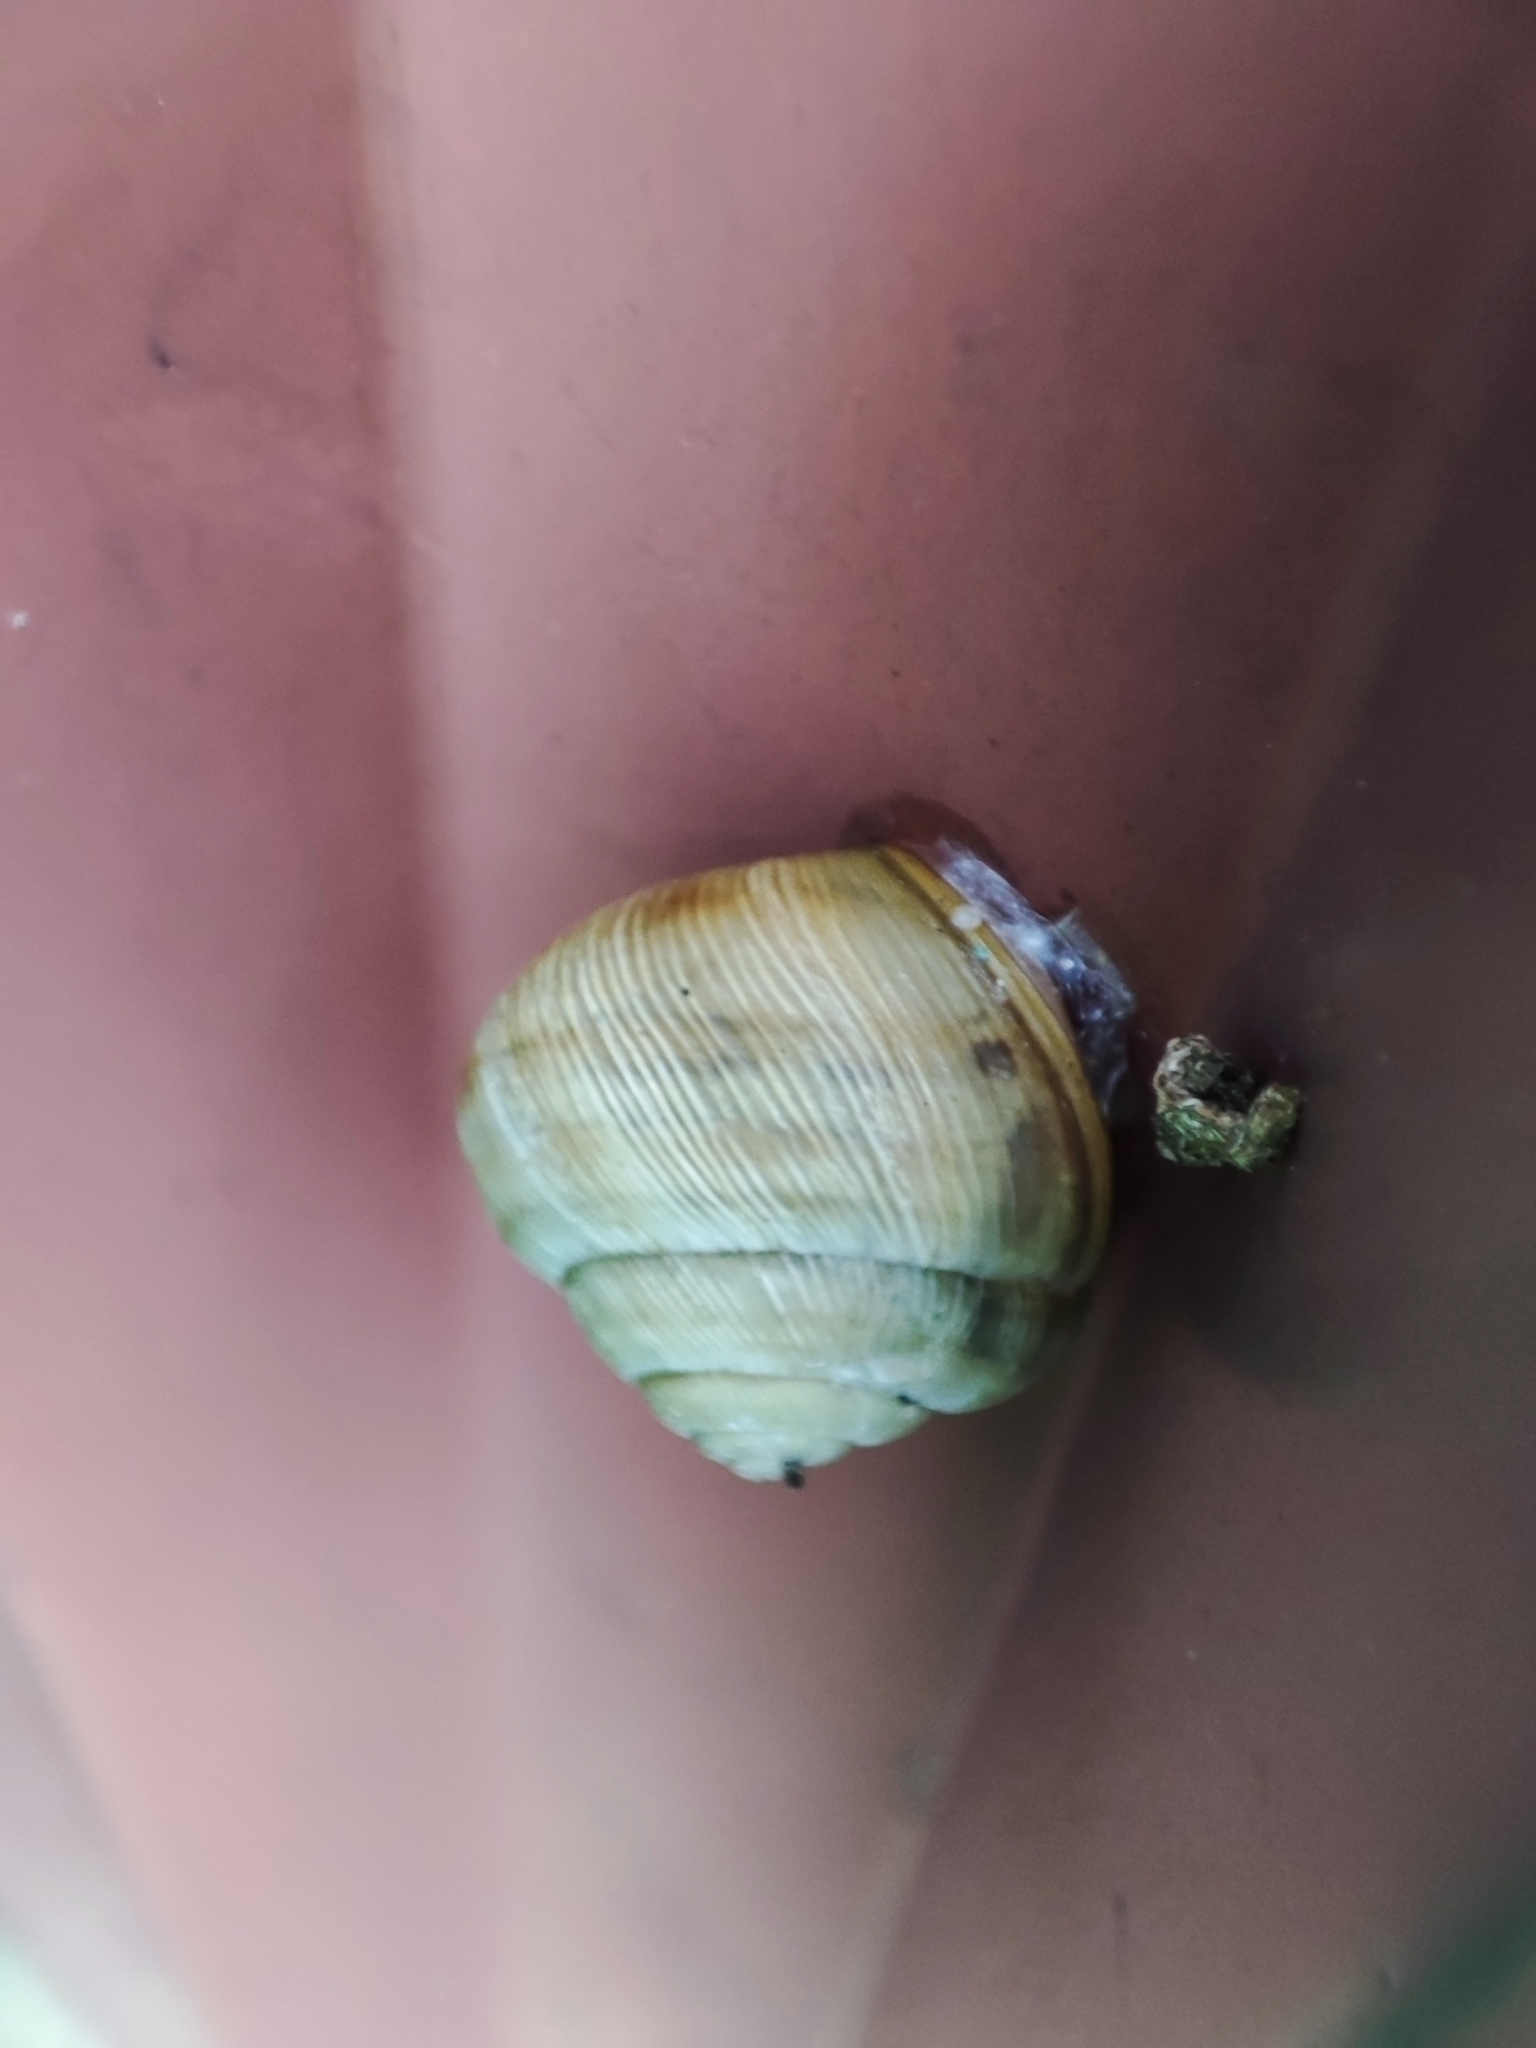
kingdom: Animalia
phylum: Mollusca
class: Gastropoda
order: Stylommatophora
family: Helicidae
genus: Caucasotachea
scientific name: Caucasotachea vindobonensis
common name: European helicid land snail
